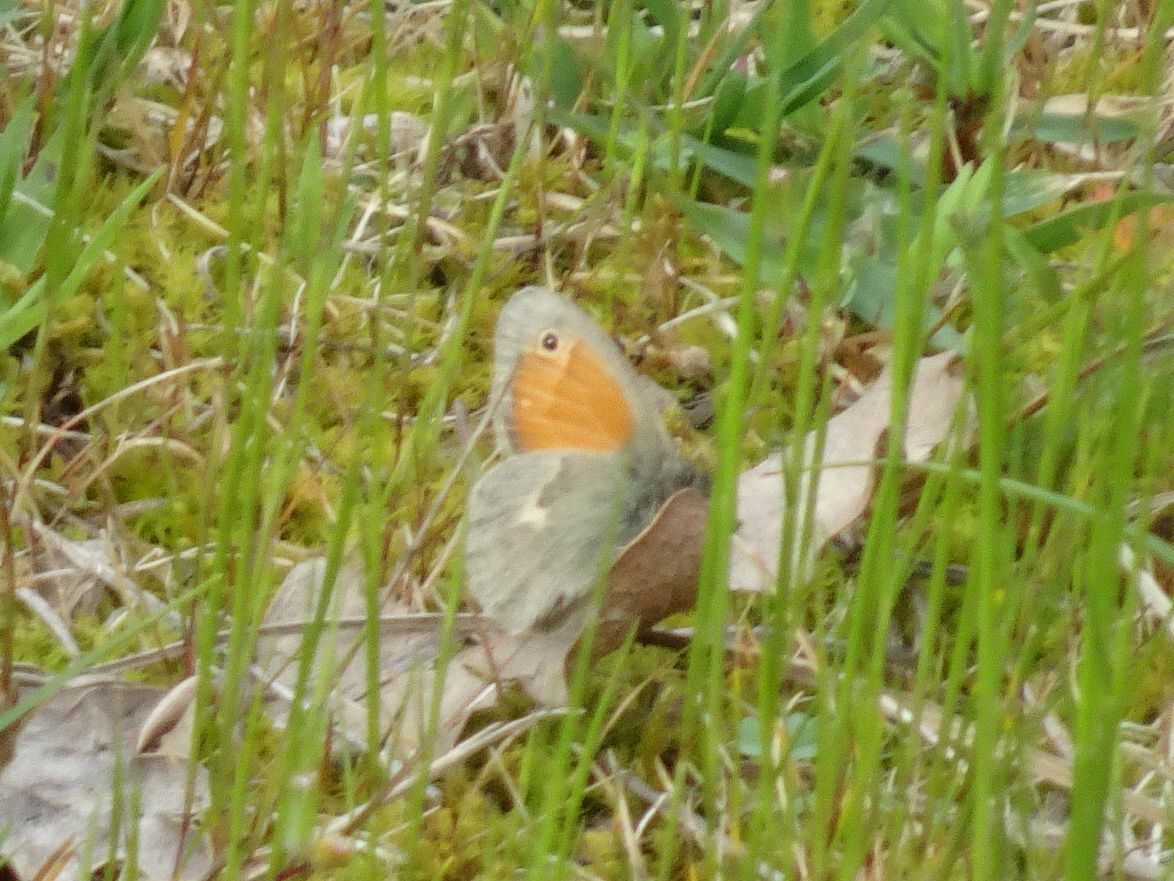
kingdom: Animalia
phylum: Arthropoda
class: Insecta
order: Lepidoptera
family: Nymphalidae
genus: Coenonympha
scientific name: Coenonympha pamphilus
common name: Small heath
